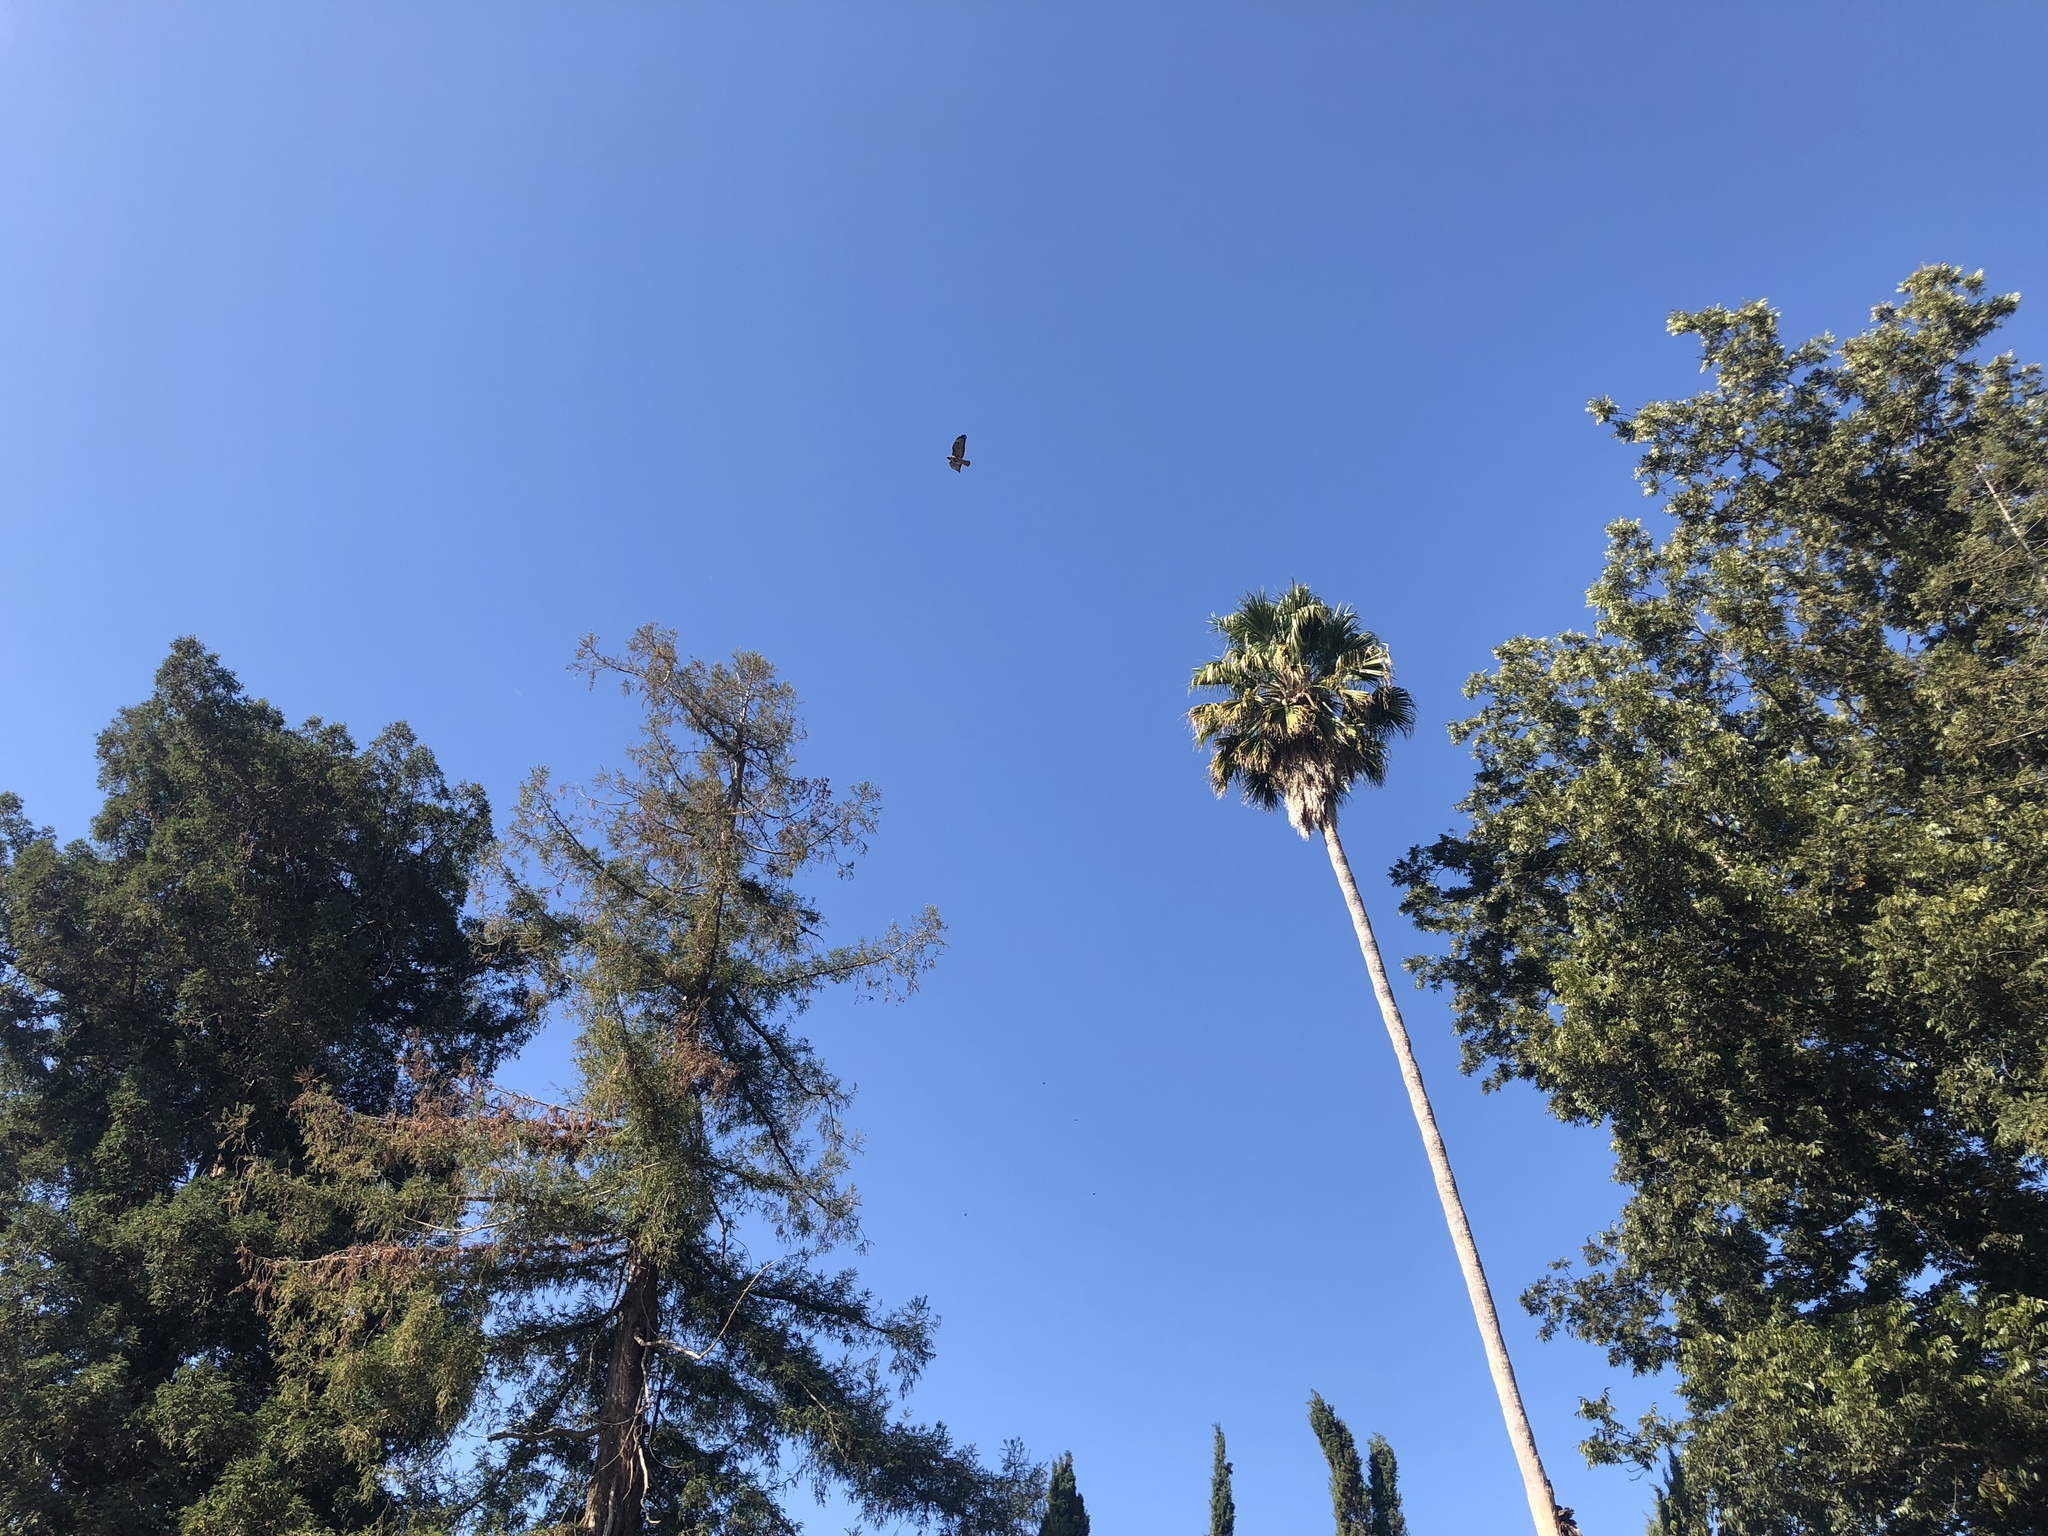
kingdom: Animalia
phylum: Chordata
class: Aves
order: Accipitriformes
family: Accipitridae
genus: Buteo
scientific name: Buteo jamaicensis
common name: Red-tailed hawk
